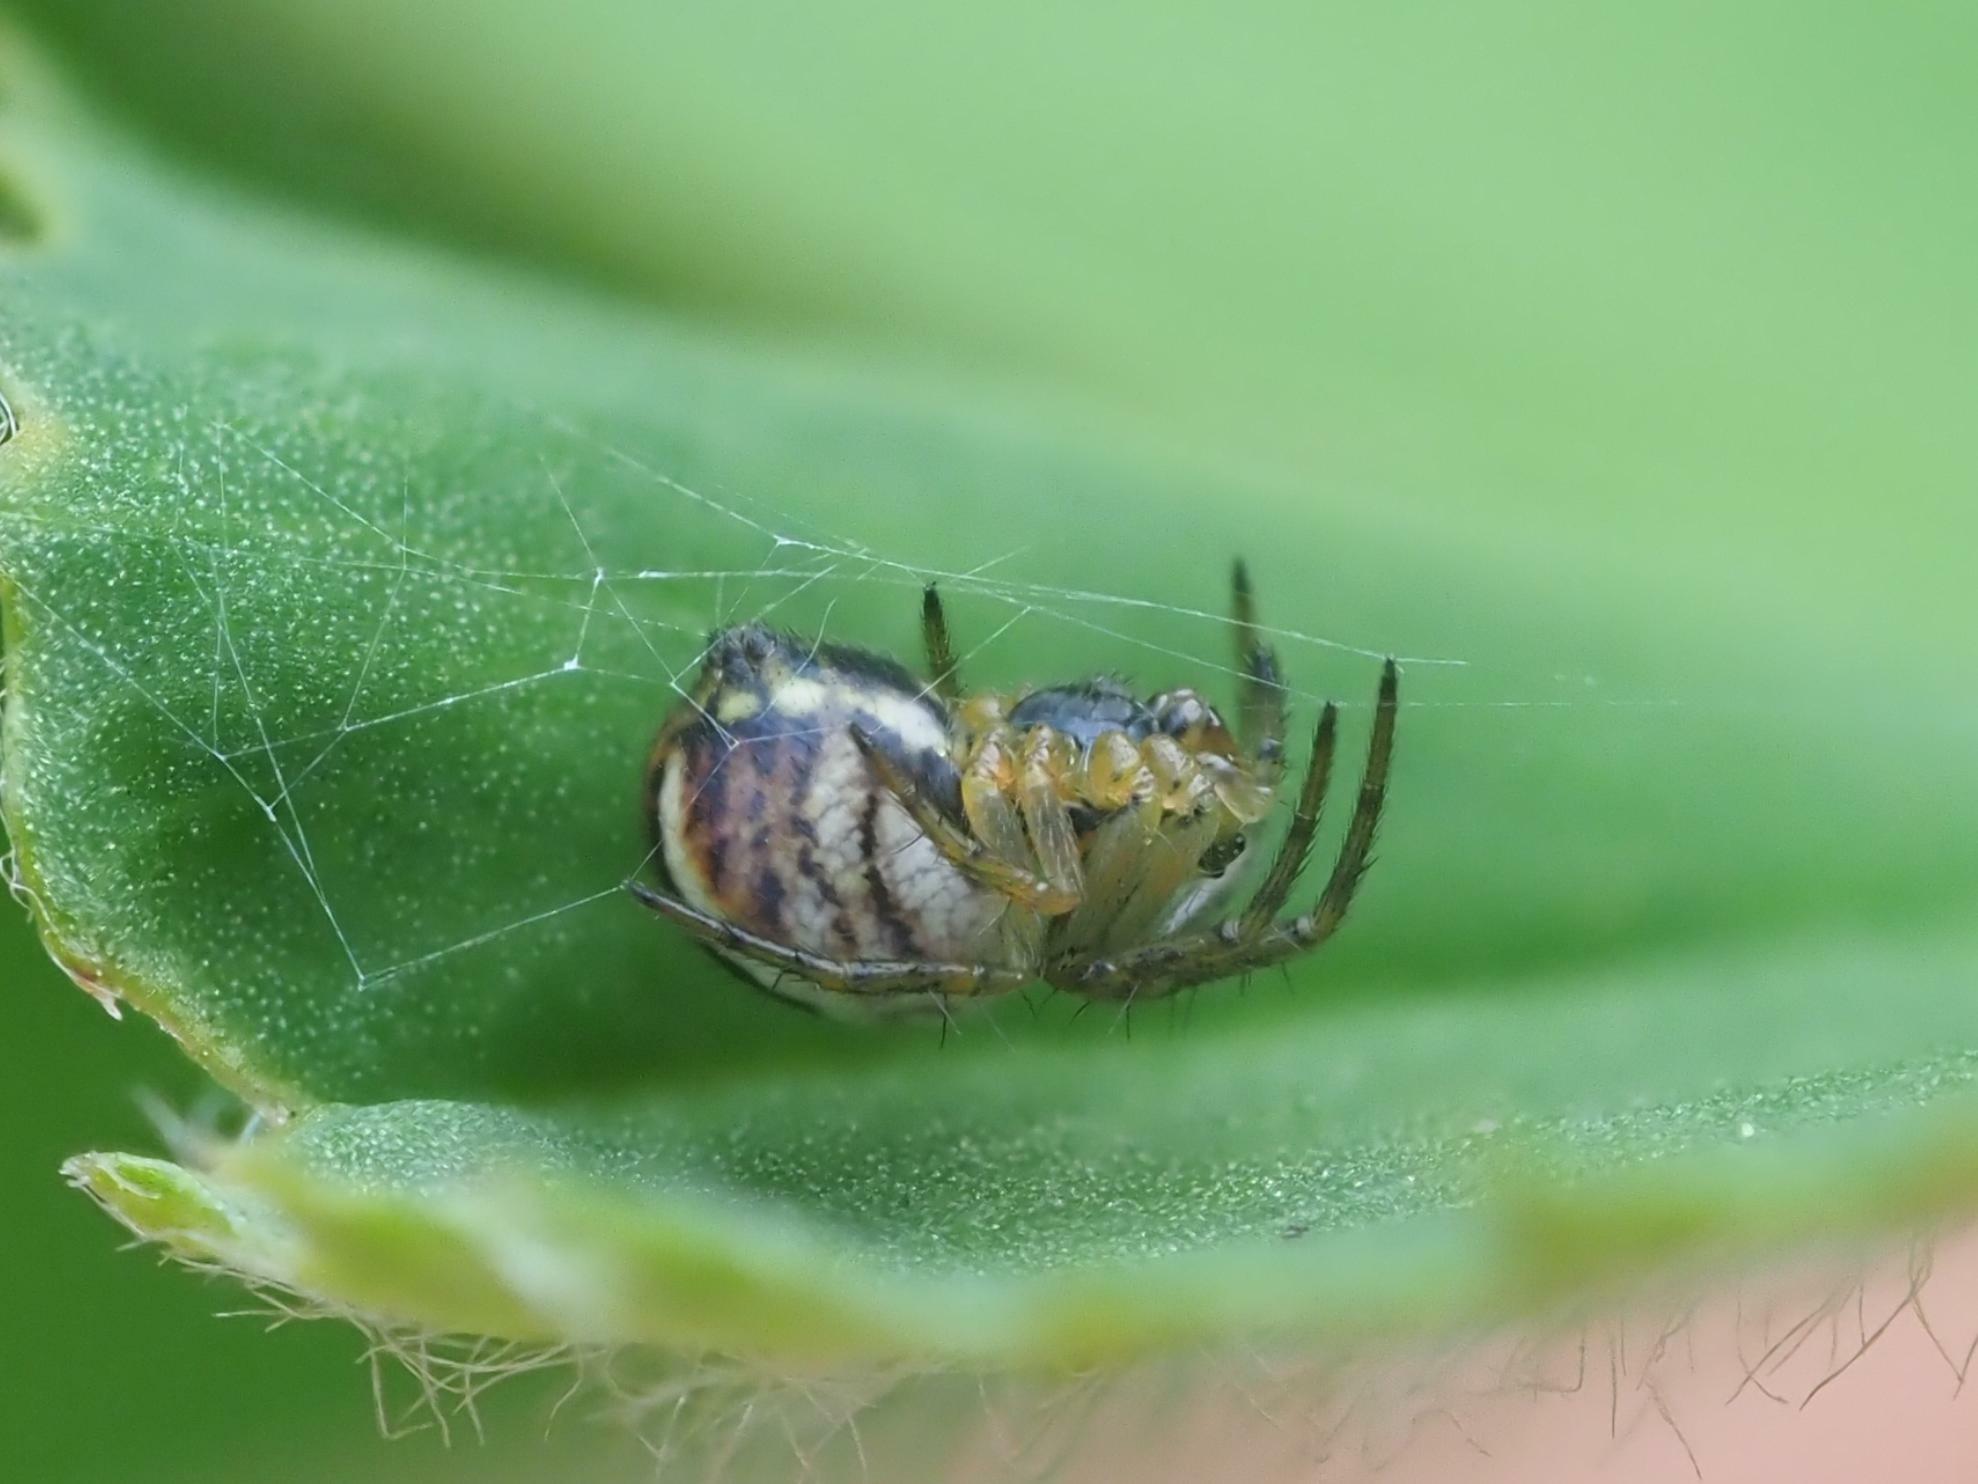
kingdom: Animalia
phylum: Arthropoda
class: Arachnida
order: Araneae
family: Araneidae
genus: Mangora
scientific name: Mangora acalypha
